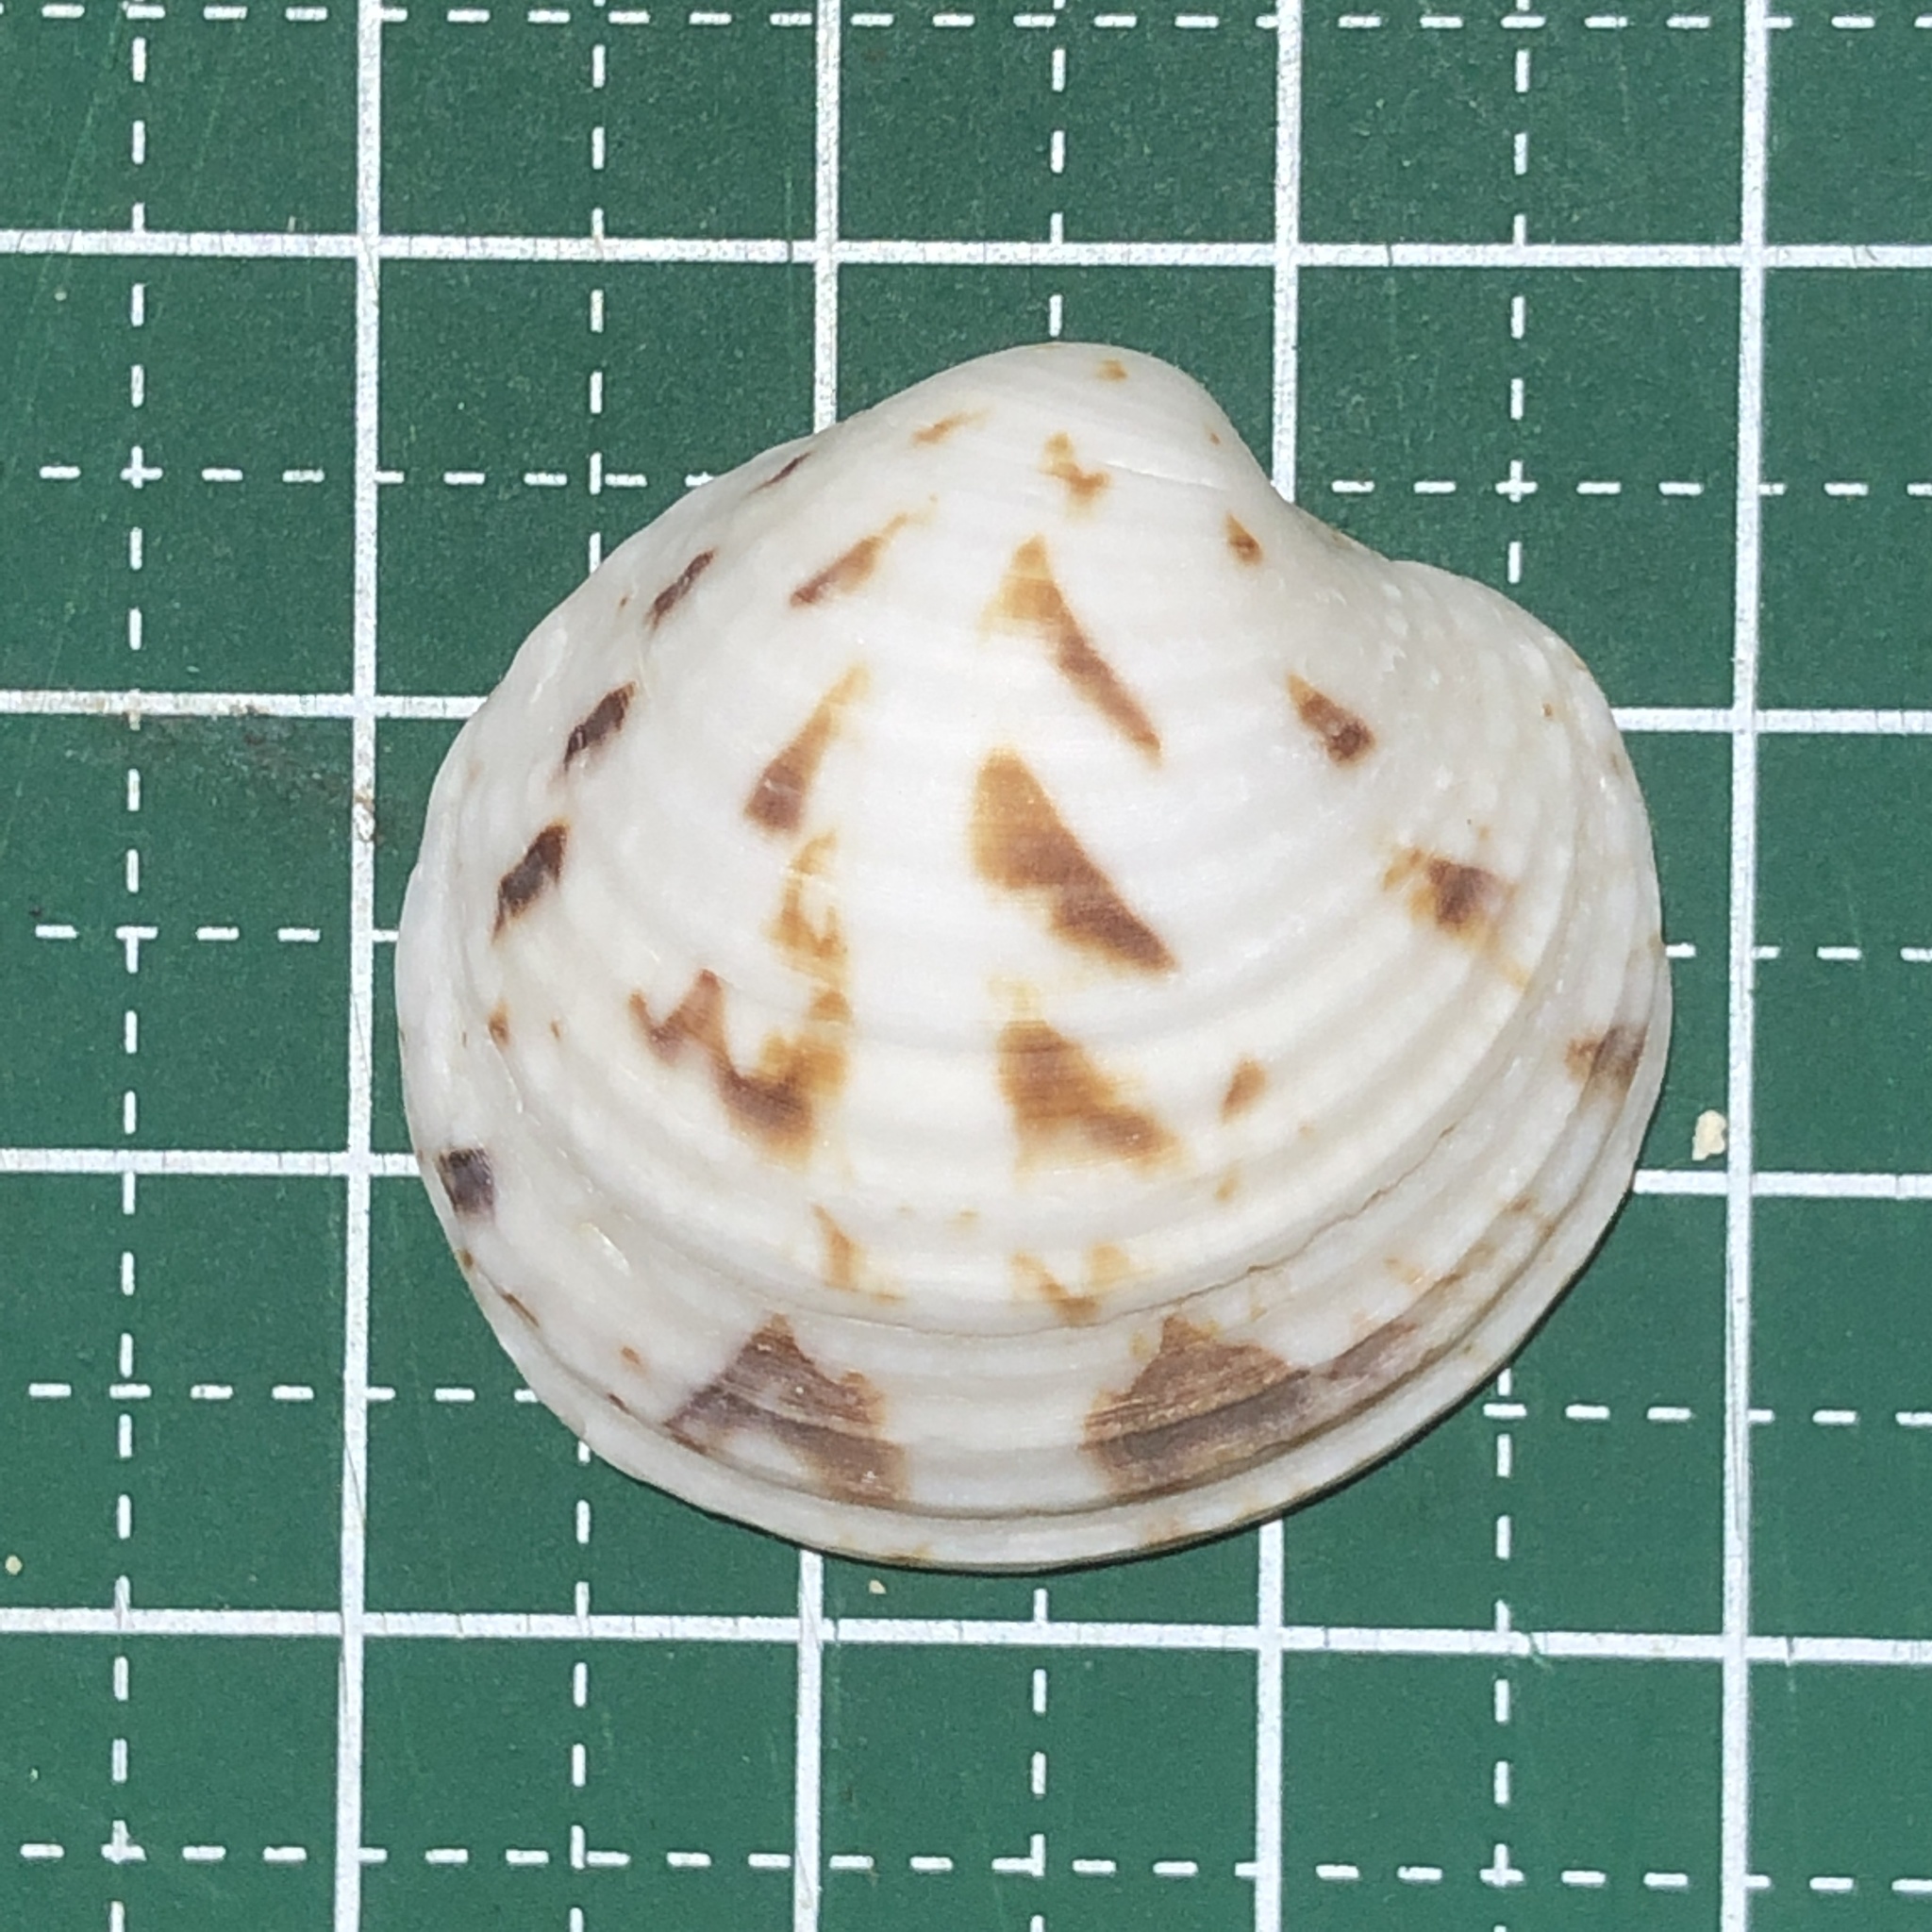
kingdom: Animalia
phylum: Mollusca
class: Bivalvia
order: Venerida
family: Veneridae
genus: Globivenus
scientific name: Globivenus toreuma
